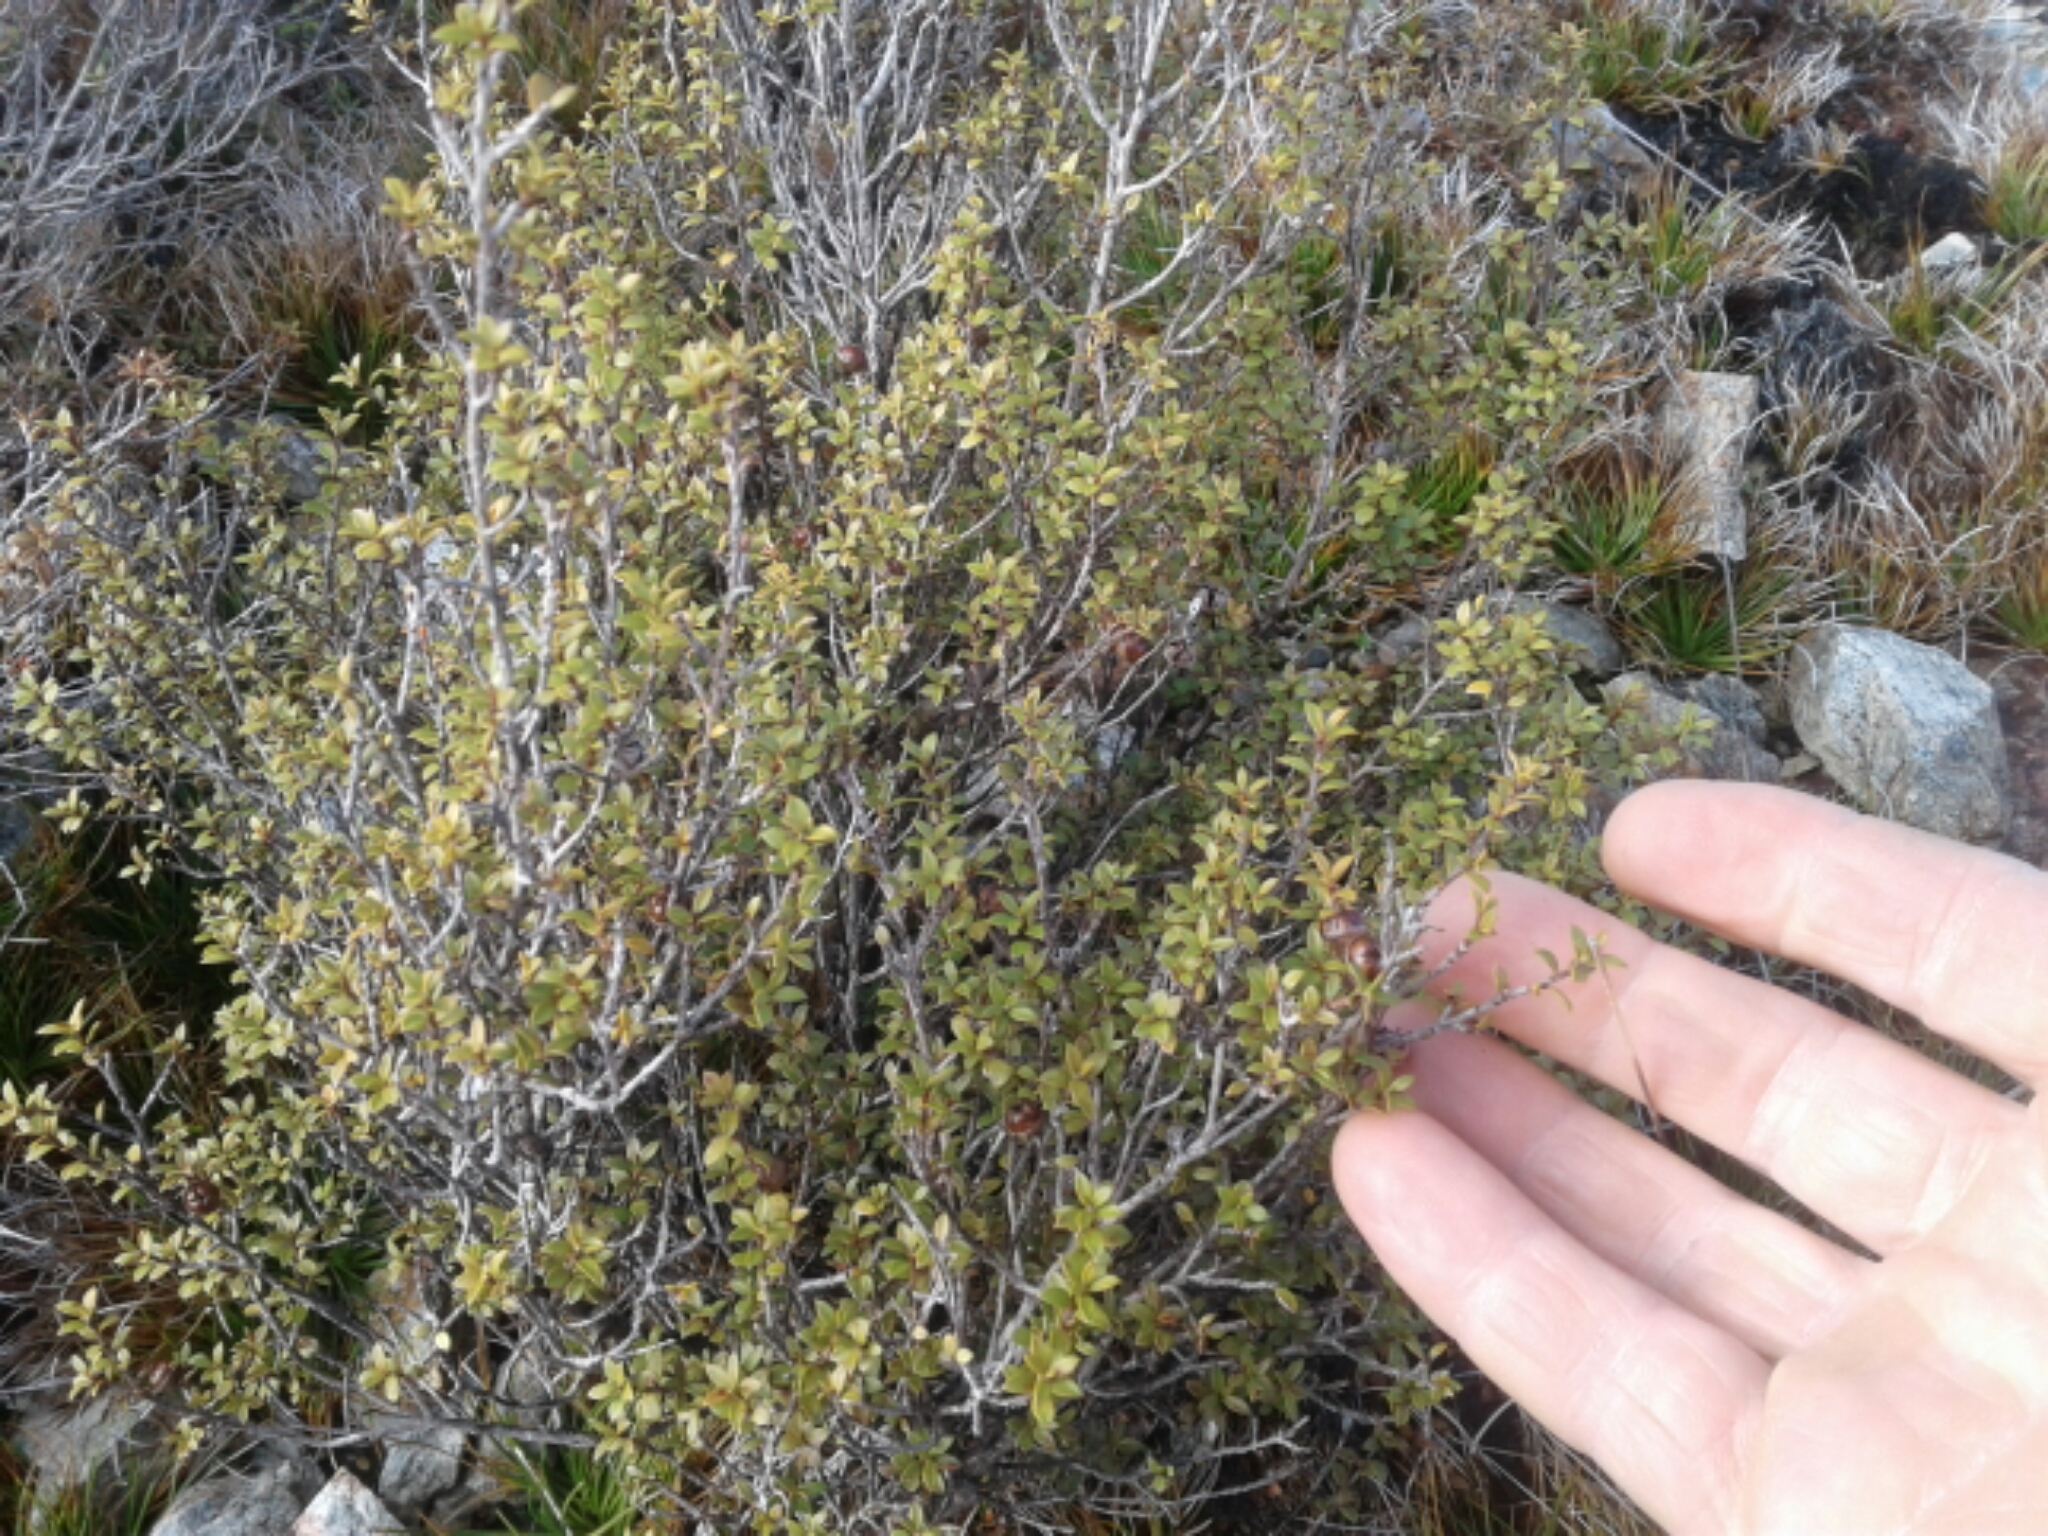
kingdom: Plantae
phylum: Tracheophyta
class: Magnoliopsida
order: Myrtales
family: Myrtaceae
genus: Leptospermum
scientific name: Leptospermum scoparium
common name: Broom tea-tree
